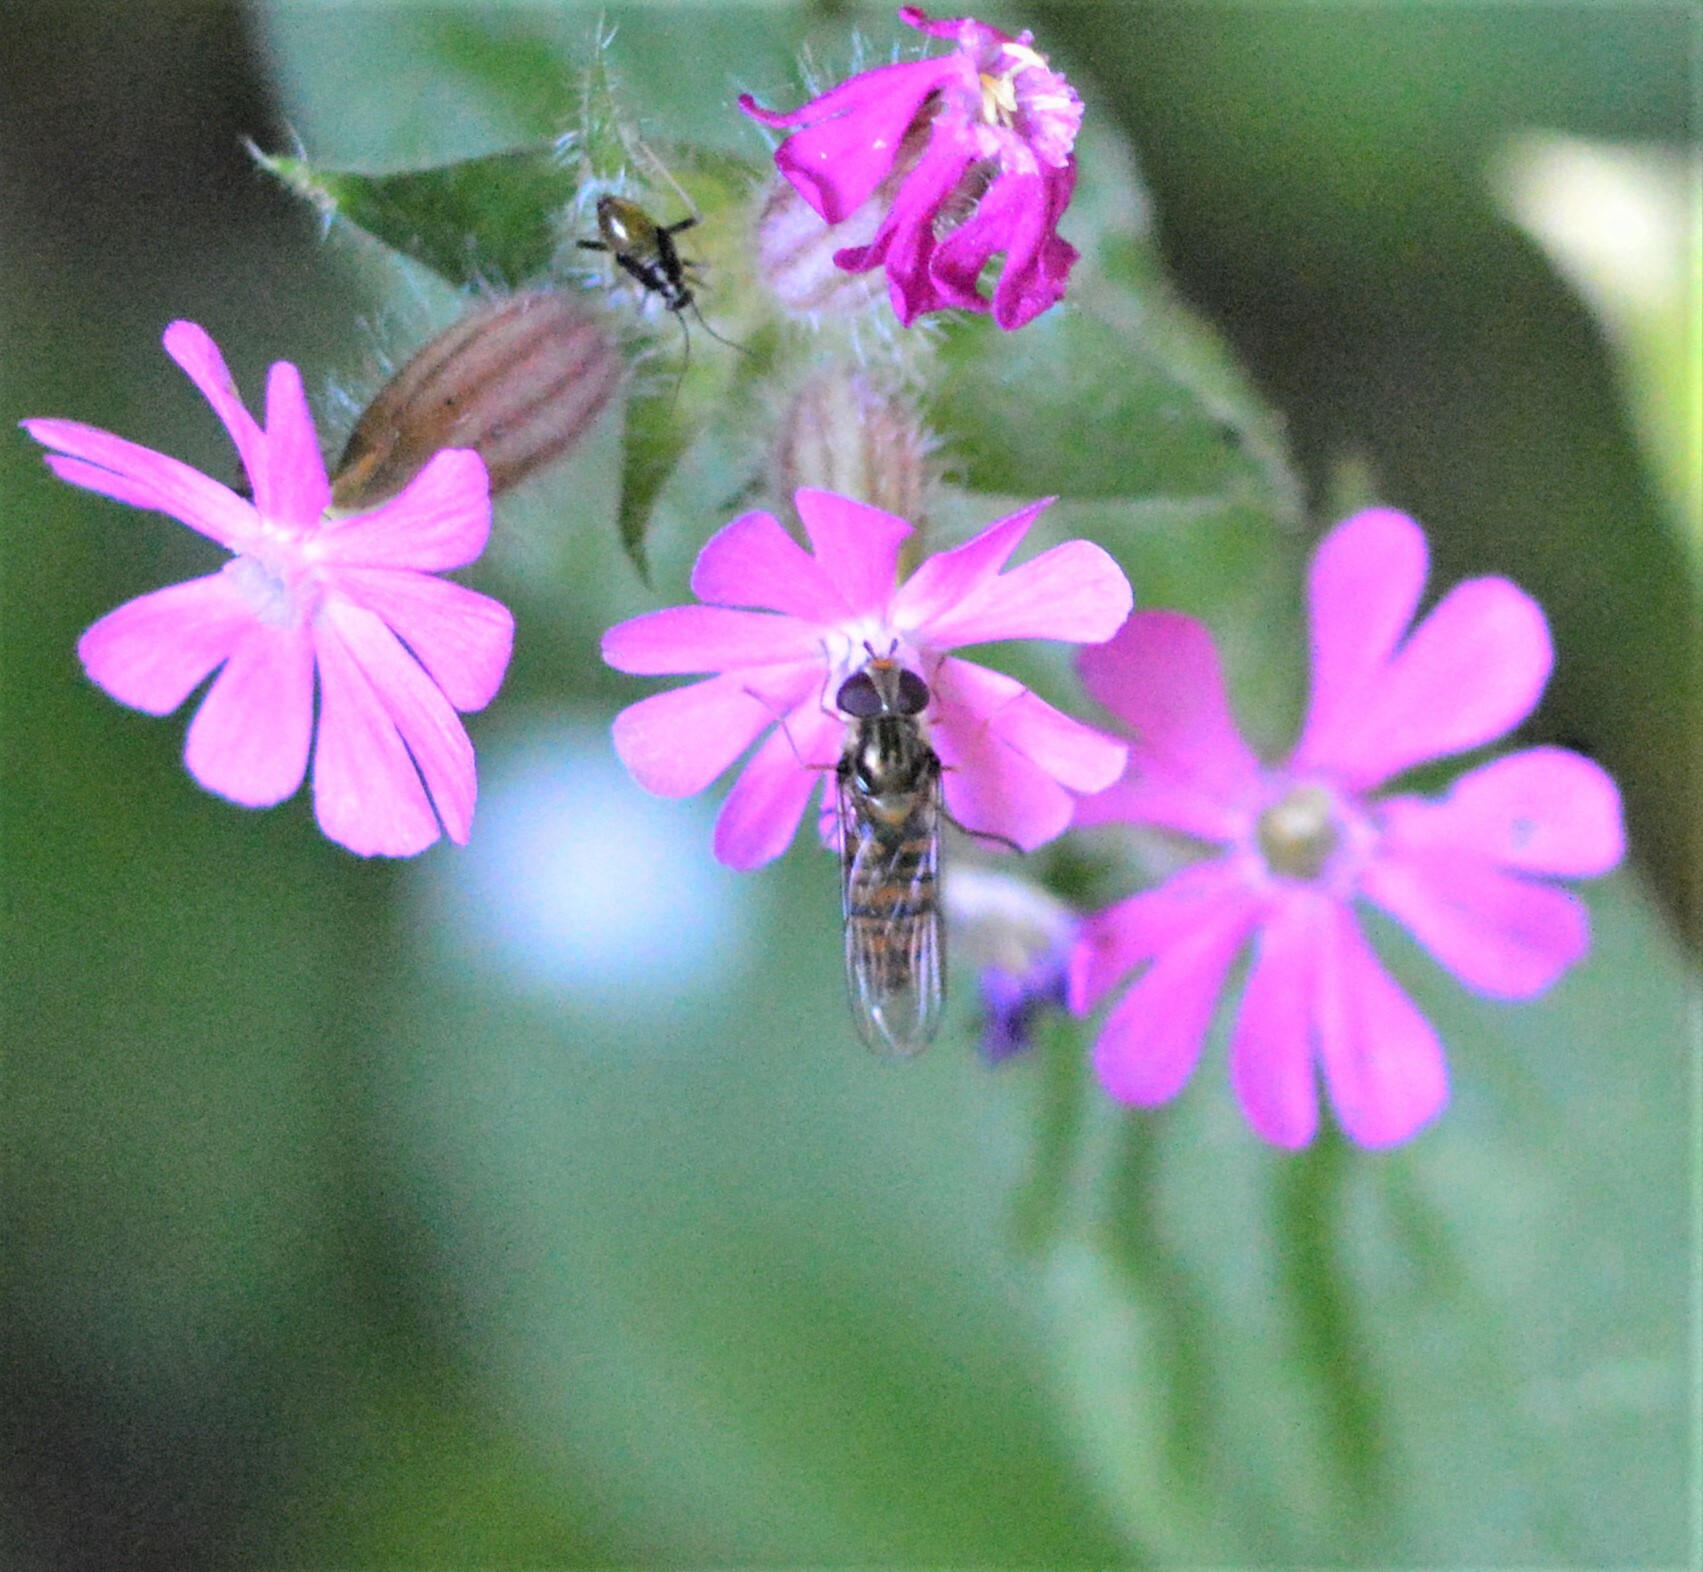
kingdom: Animalia
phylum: Arthropoda
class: Insecta
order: Diptera
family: Syrphidae
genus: Episyrphus
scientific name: Episyrphus balteatus
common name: Marmalade hoverfly
